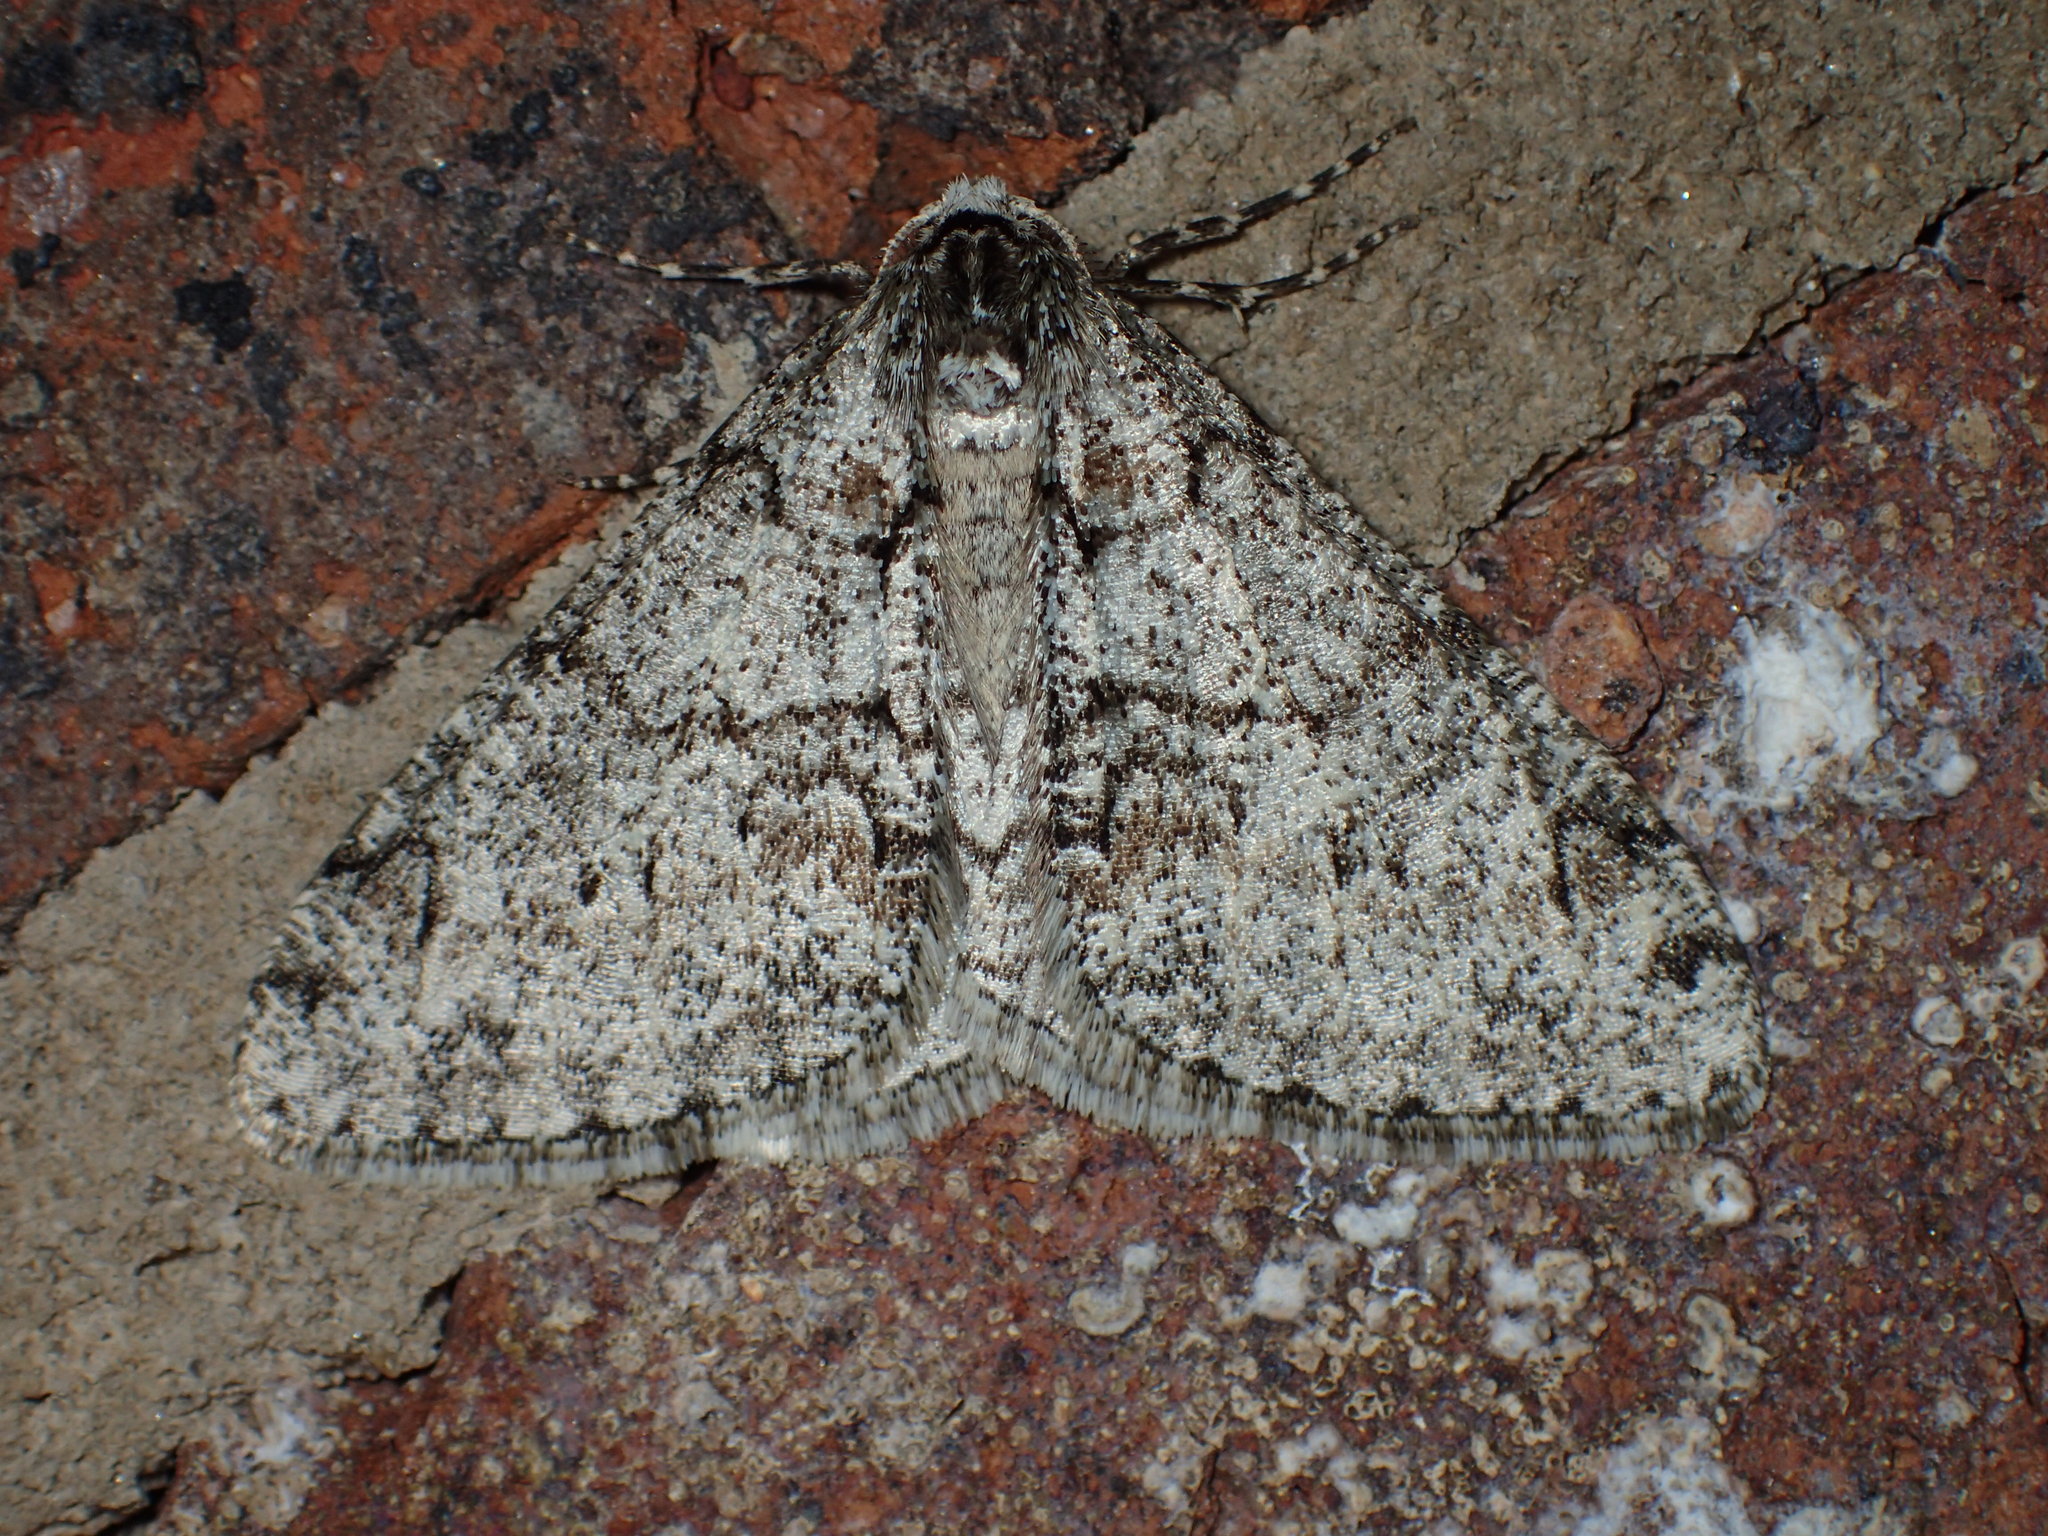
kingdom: Animalia
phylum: Arthropoda
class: Insecta
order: Lepidoptera
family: Geometridae
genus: Phigalia
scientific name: Phigalia denticulata
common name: Toothed phigalia
